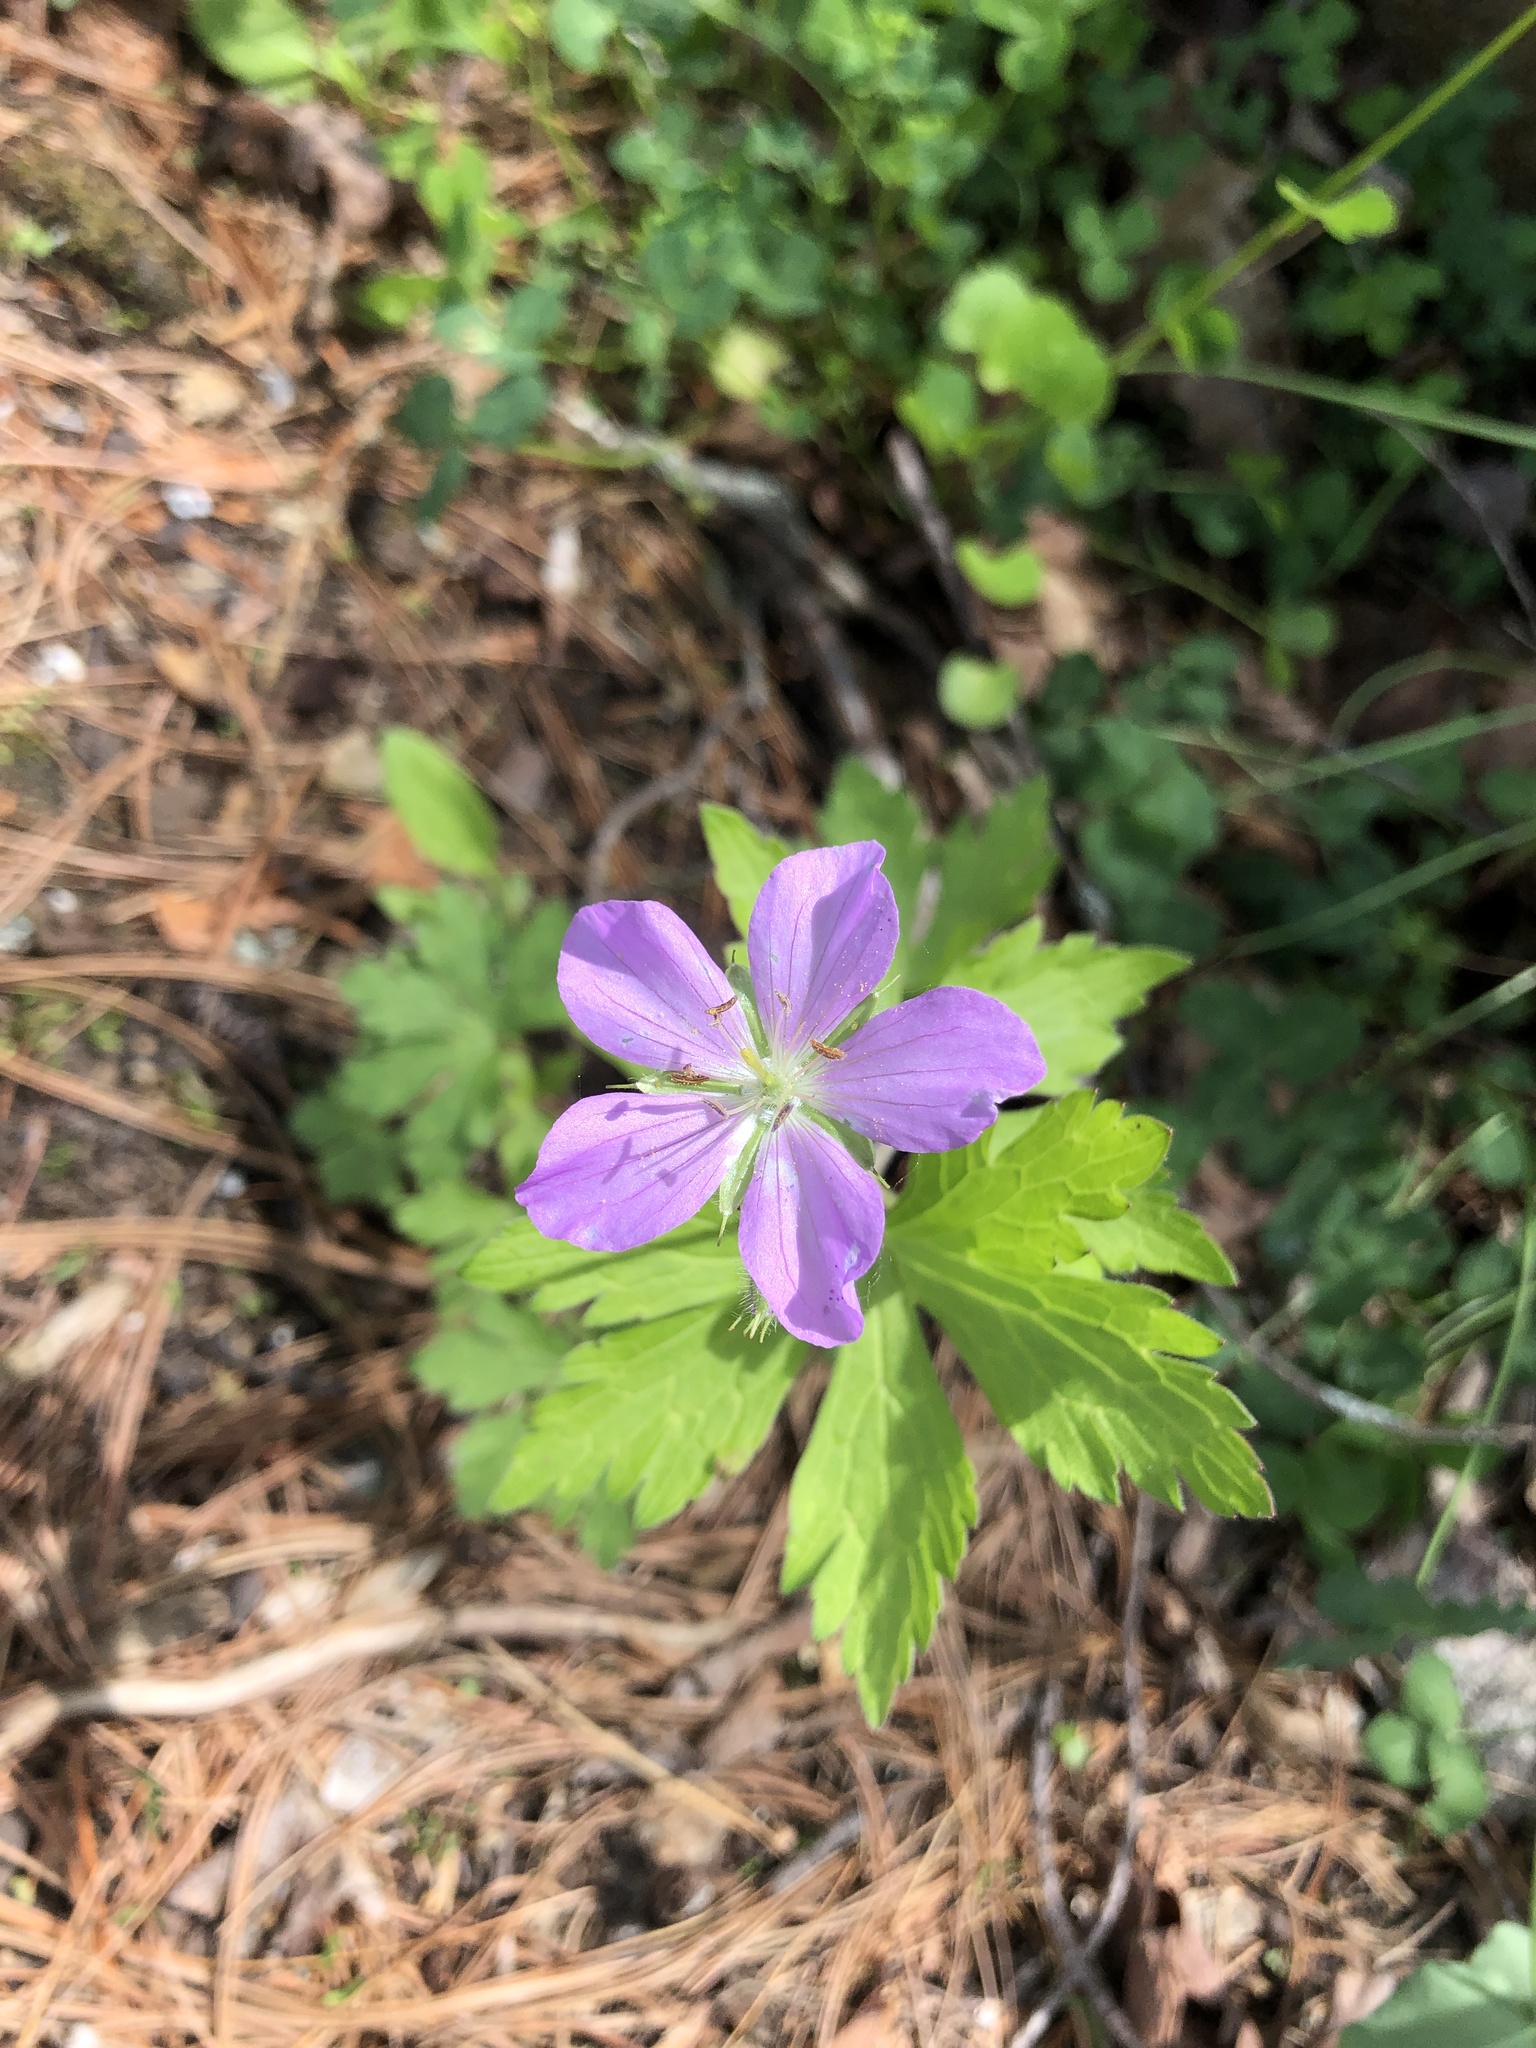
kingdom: Plantae
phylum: Tracheophyta
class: Magnoliopsida
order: Geraniales
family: Geraniaceae
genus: Geranium
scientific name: Geranium maculatum
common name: Spotted geranium
